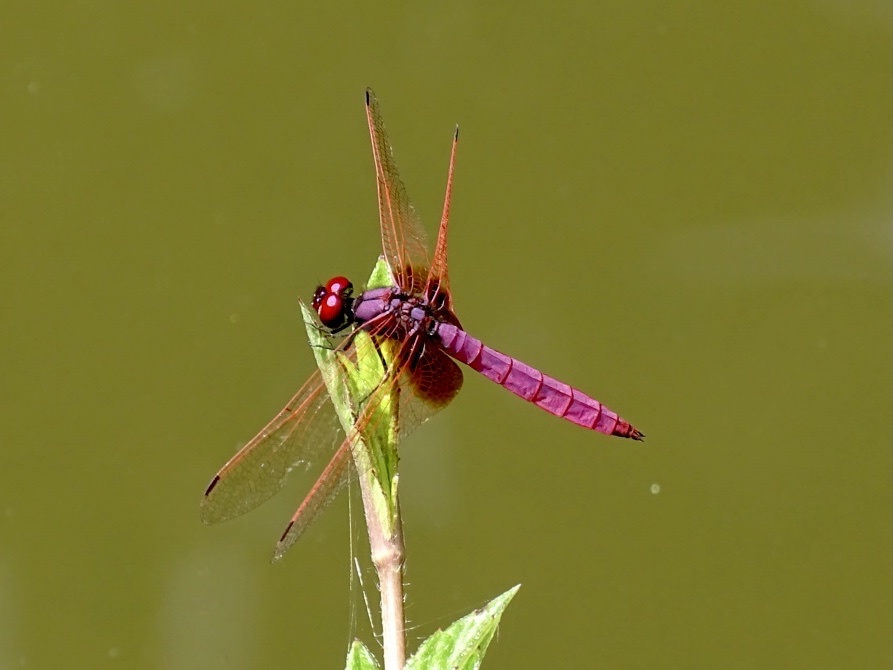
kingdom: Animalia
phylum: Arthropoda
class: Insecta
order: Odonata
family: Libellulidae
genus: Trithemis
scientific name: Trithemis aurora
